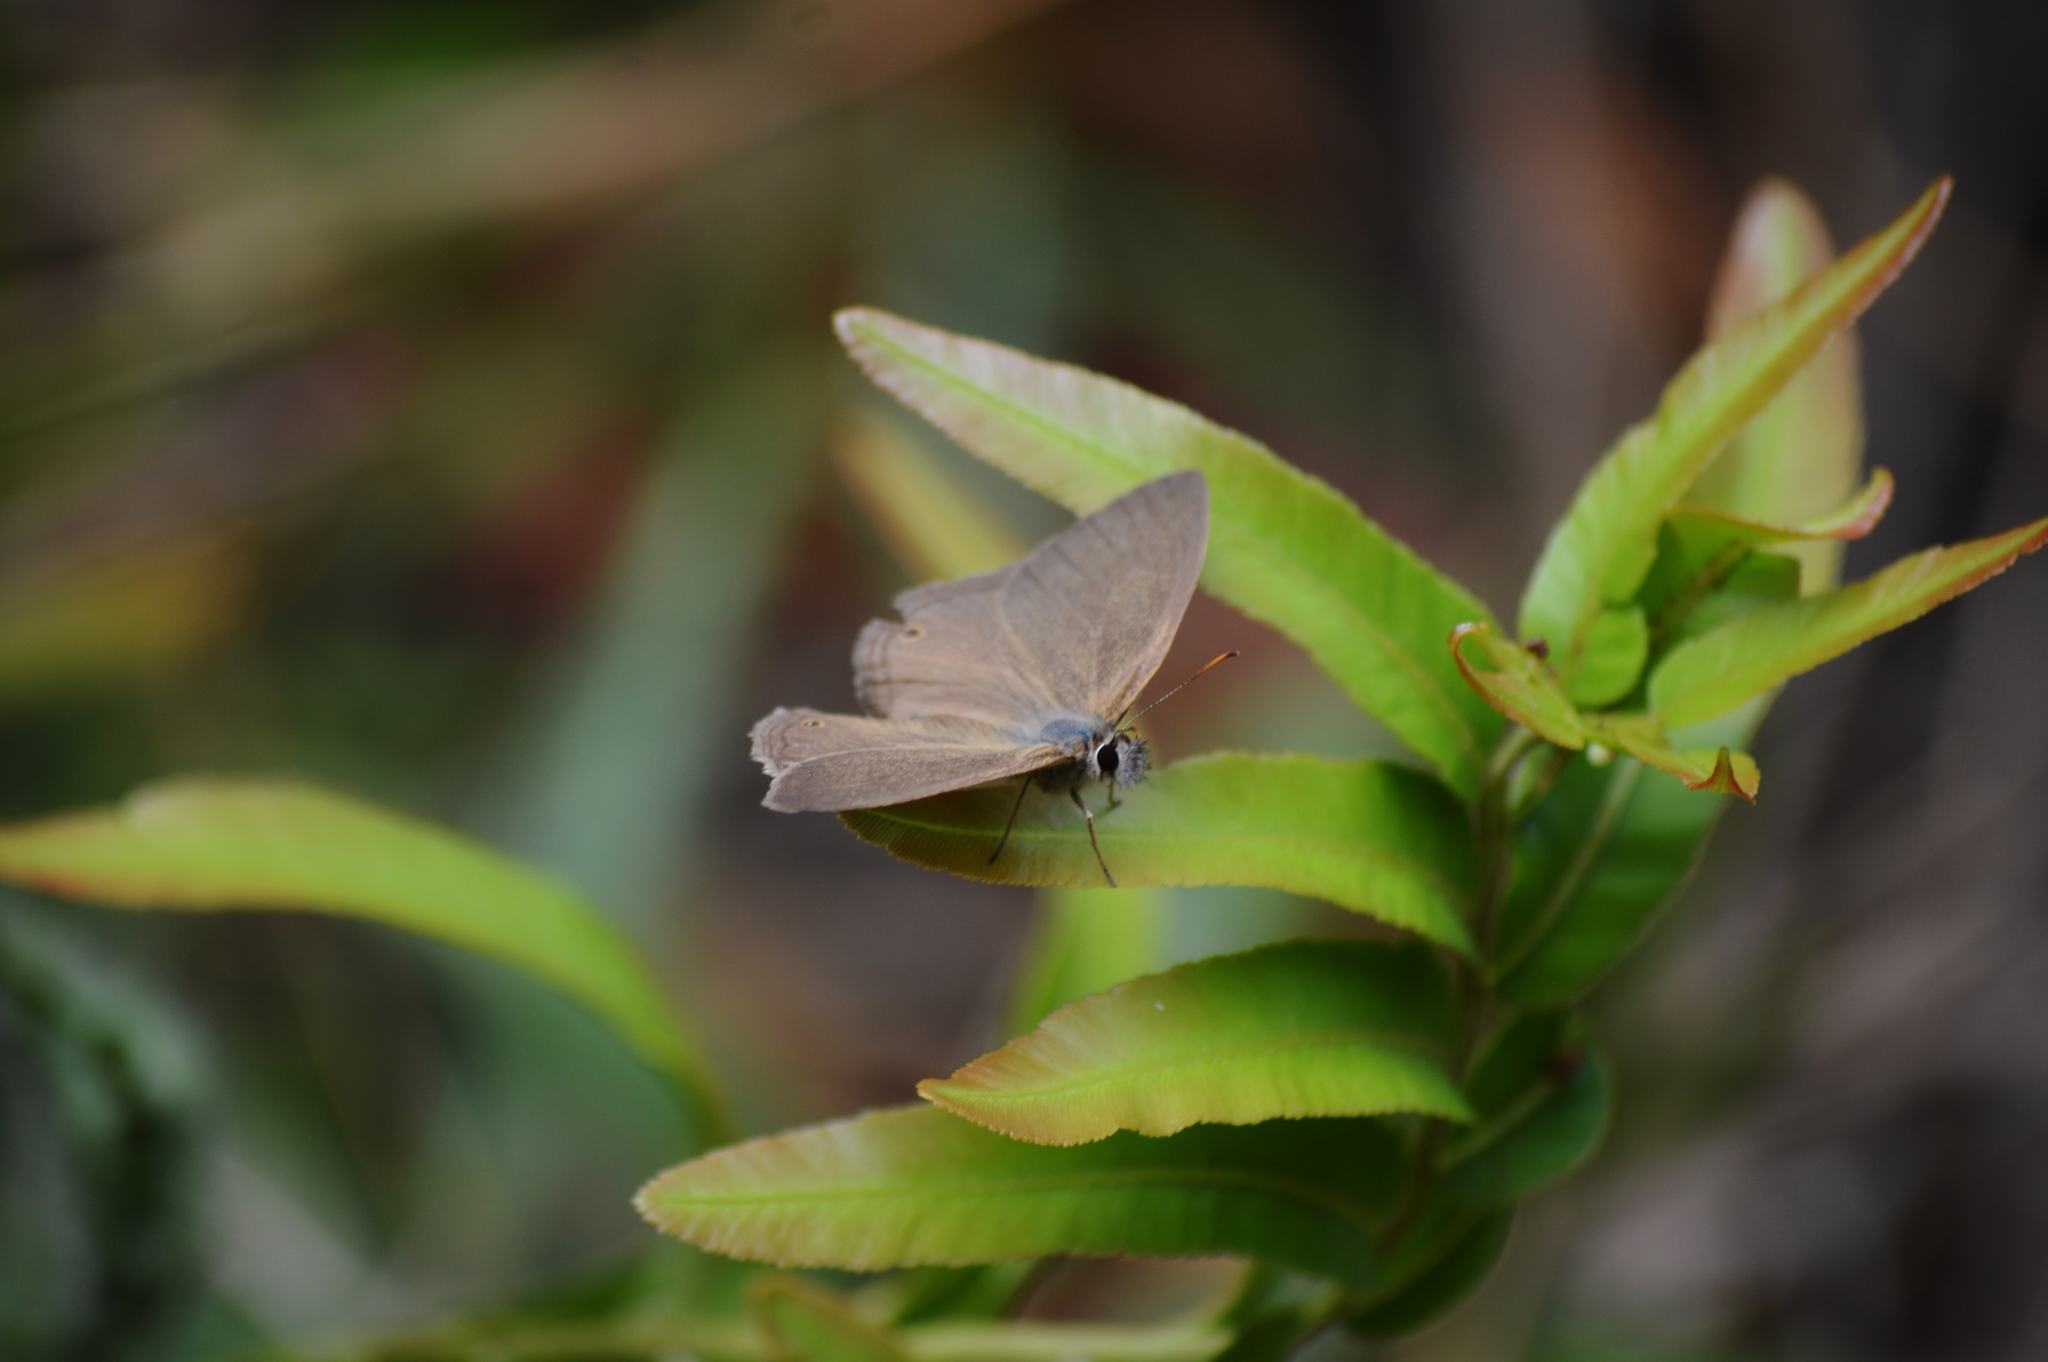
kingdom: Animalia
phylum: Arthropoda
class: Insecta
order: Lepidoptera
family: Nymphalidae
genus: Euptychiina
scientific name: Euptychiina
